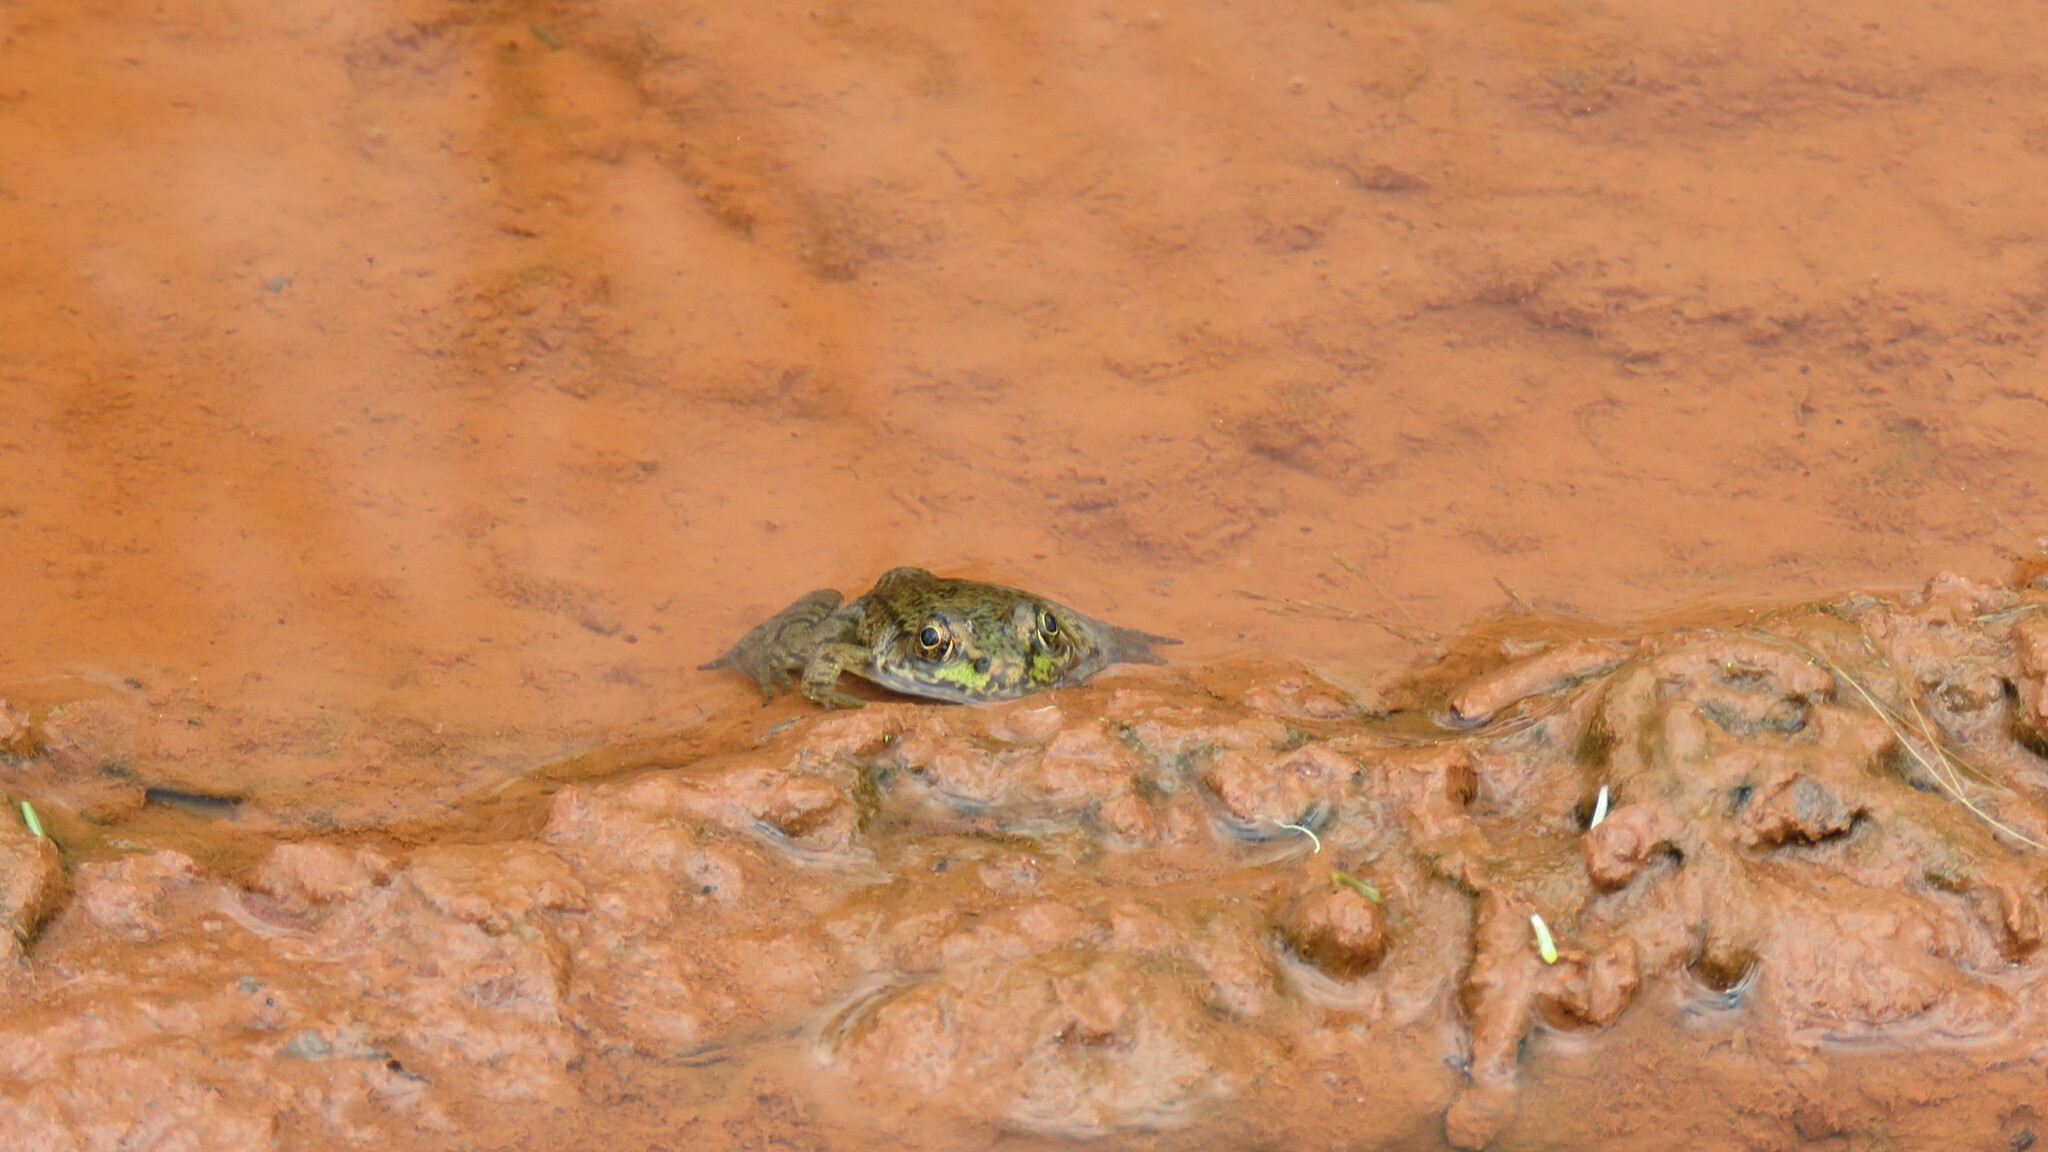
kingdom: Animalia
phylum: Chordata
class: Amphibia
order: Anura
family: Ranidae
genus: Lithobates
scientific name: Lithobates clamitans
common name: Green frog
